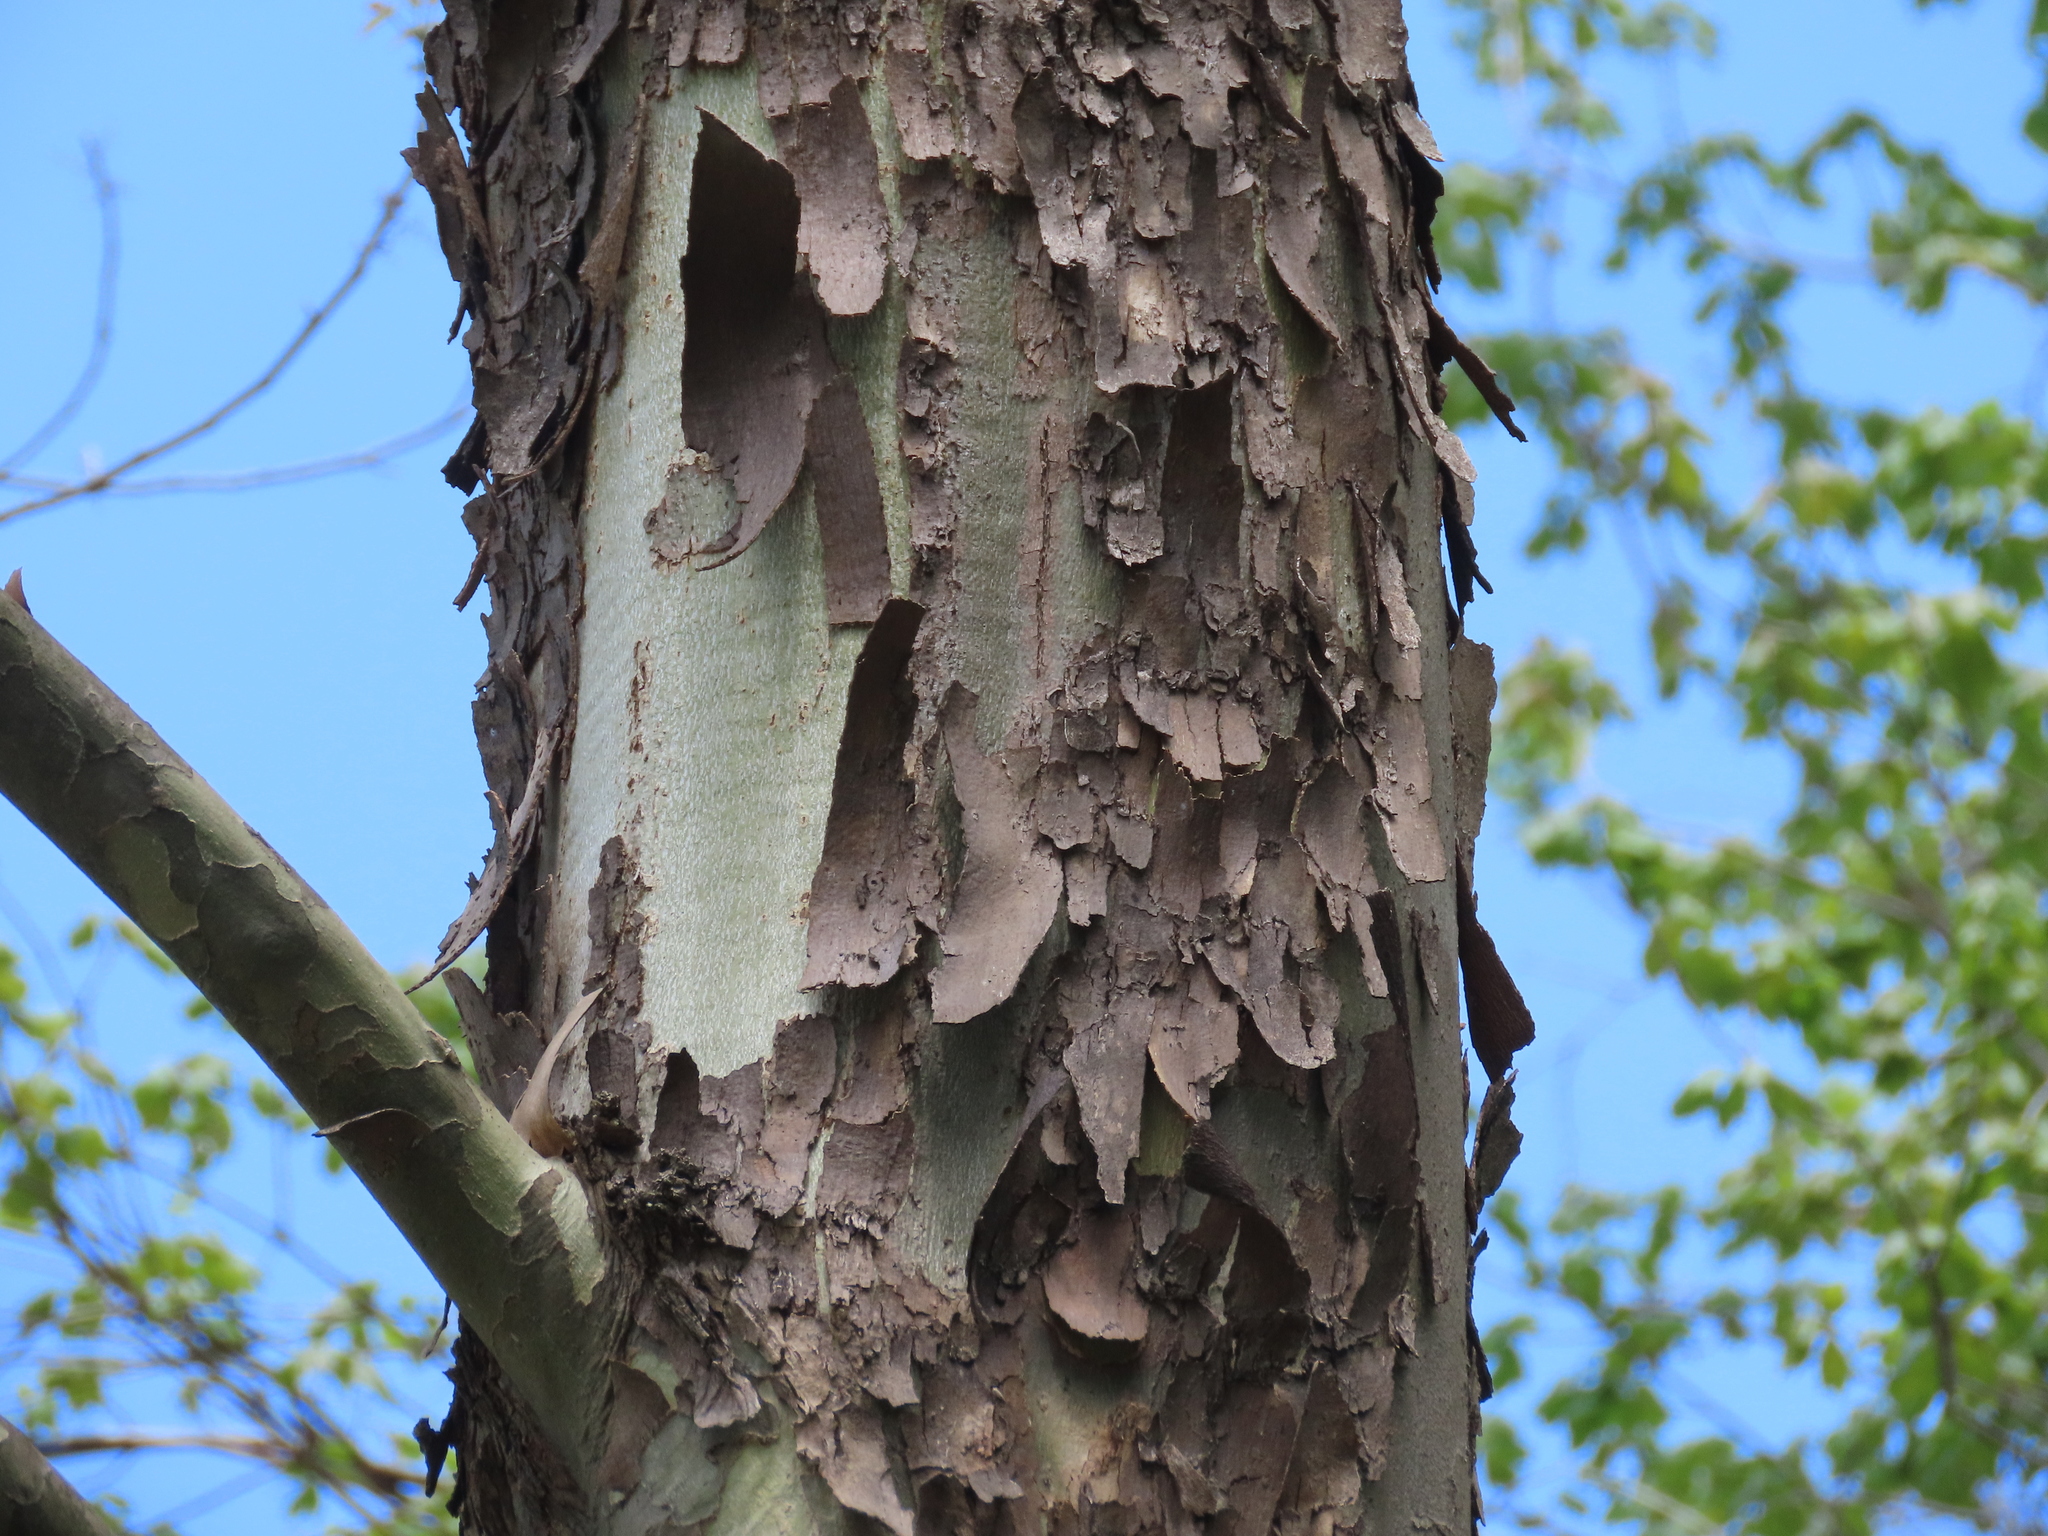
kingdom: Plantae
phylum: Tracheophyta
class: Magnoliopsida
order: Proteales
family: Platanaceae
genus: Platanus
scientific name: Platanus occidentalis
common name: American sycamore
